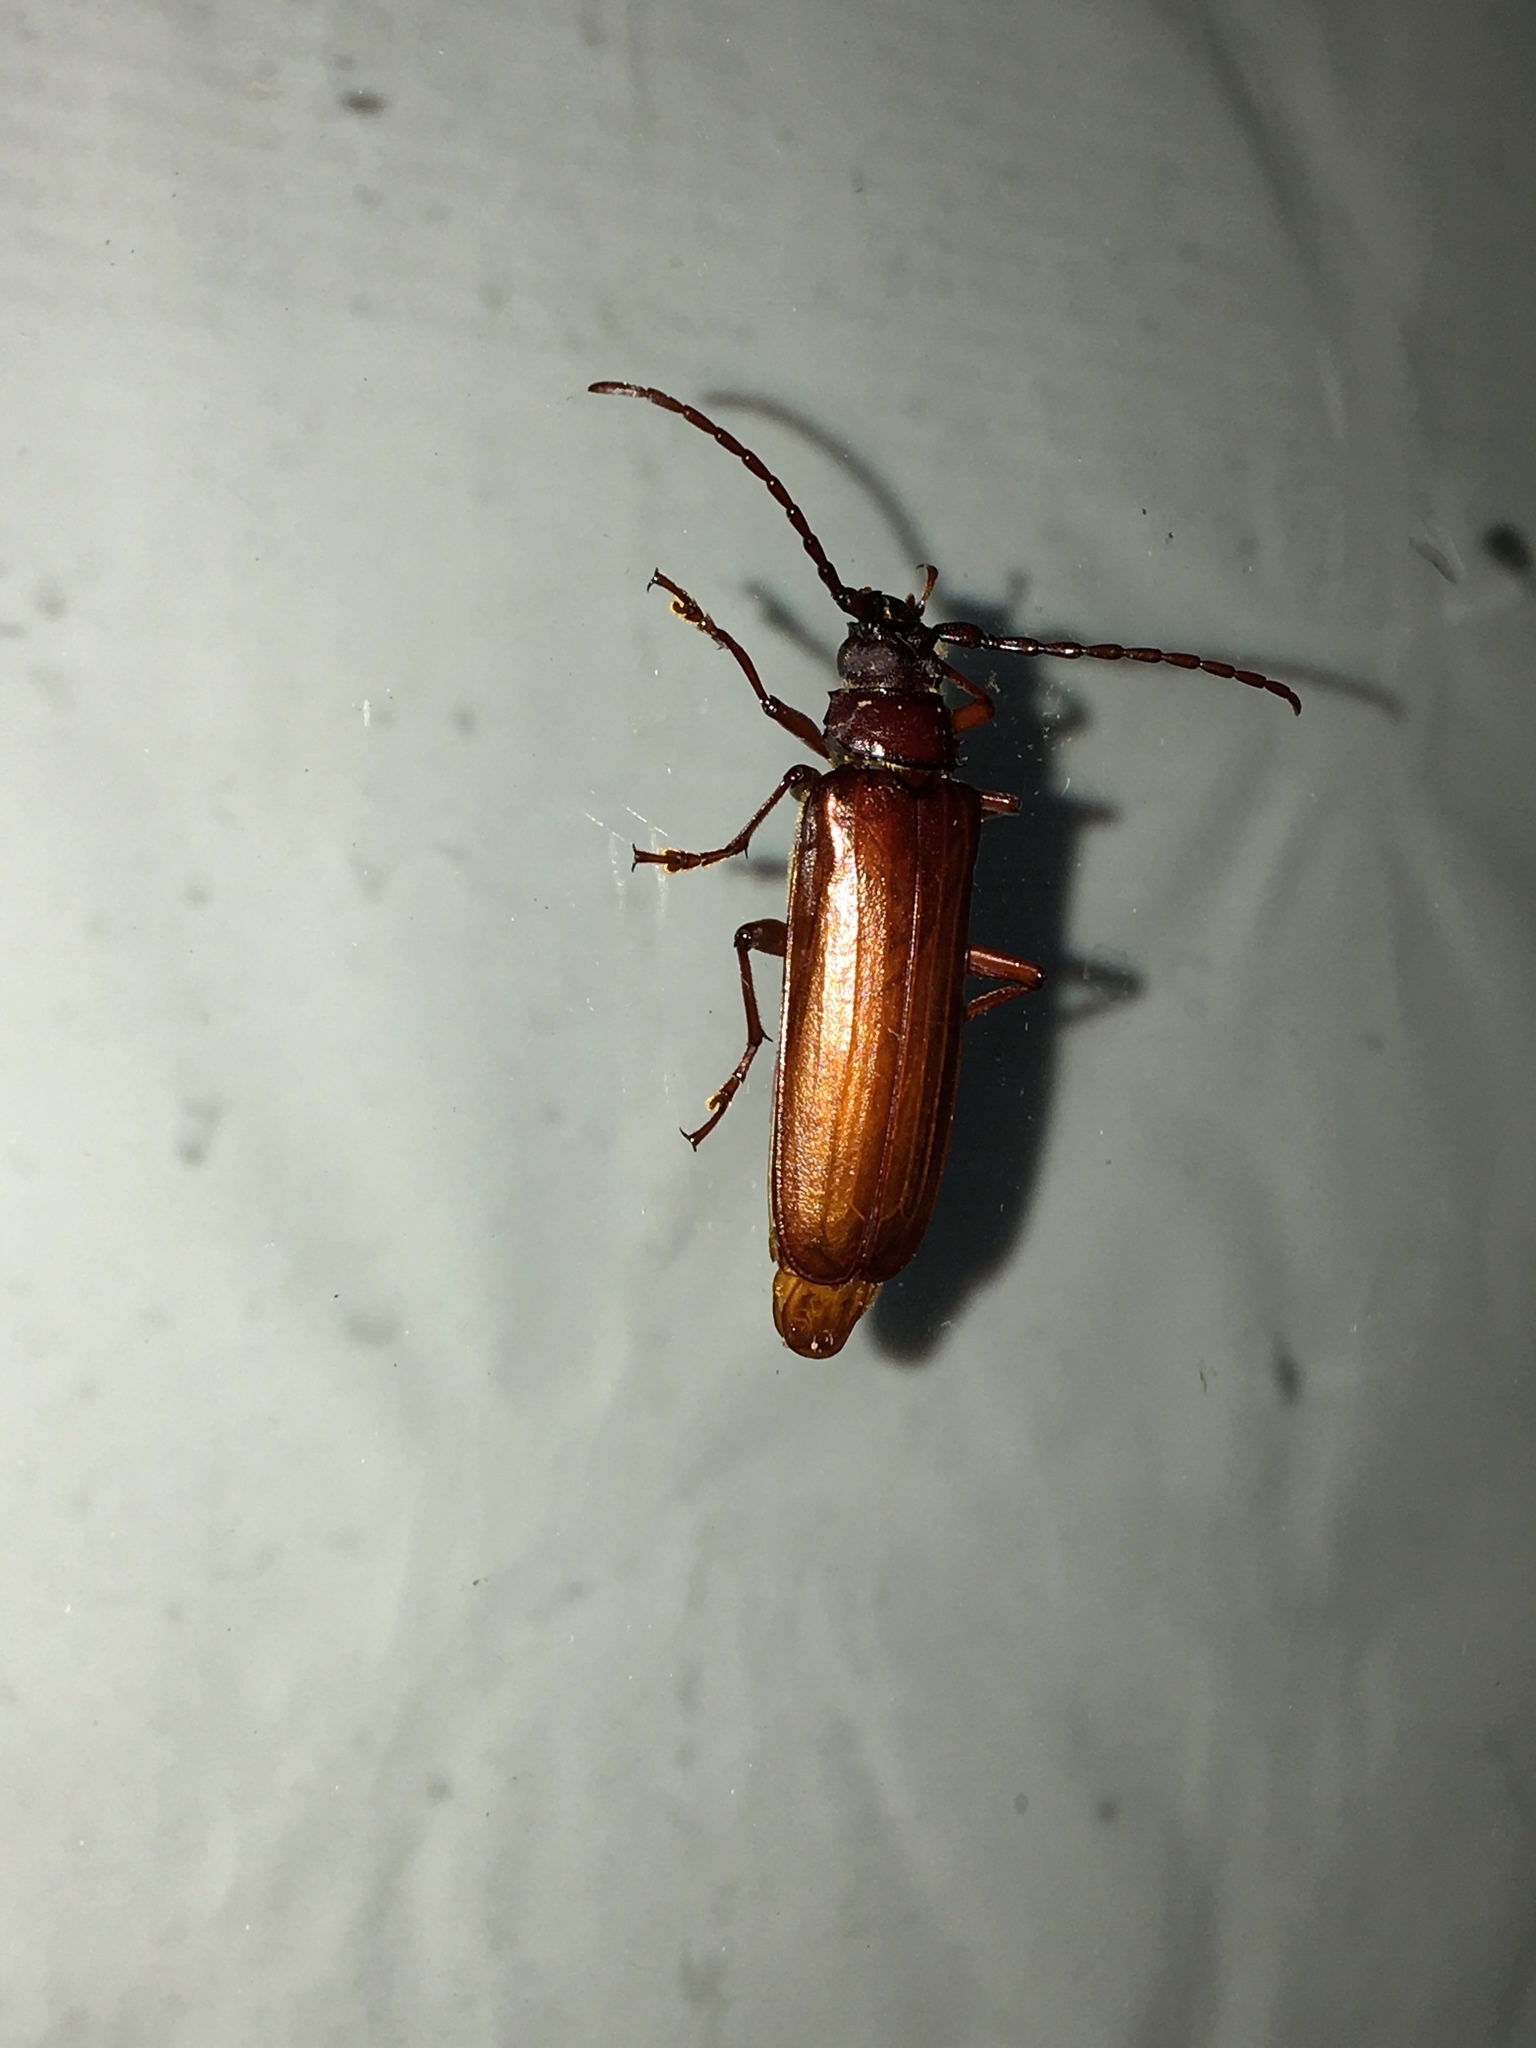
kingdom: Animalia
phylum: Arthropoda
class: Insecta
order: Coleoptera
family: Cerambycidae
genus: Orthosoma
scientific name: Orthosoma brunneum
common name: Brown prionid beetle
